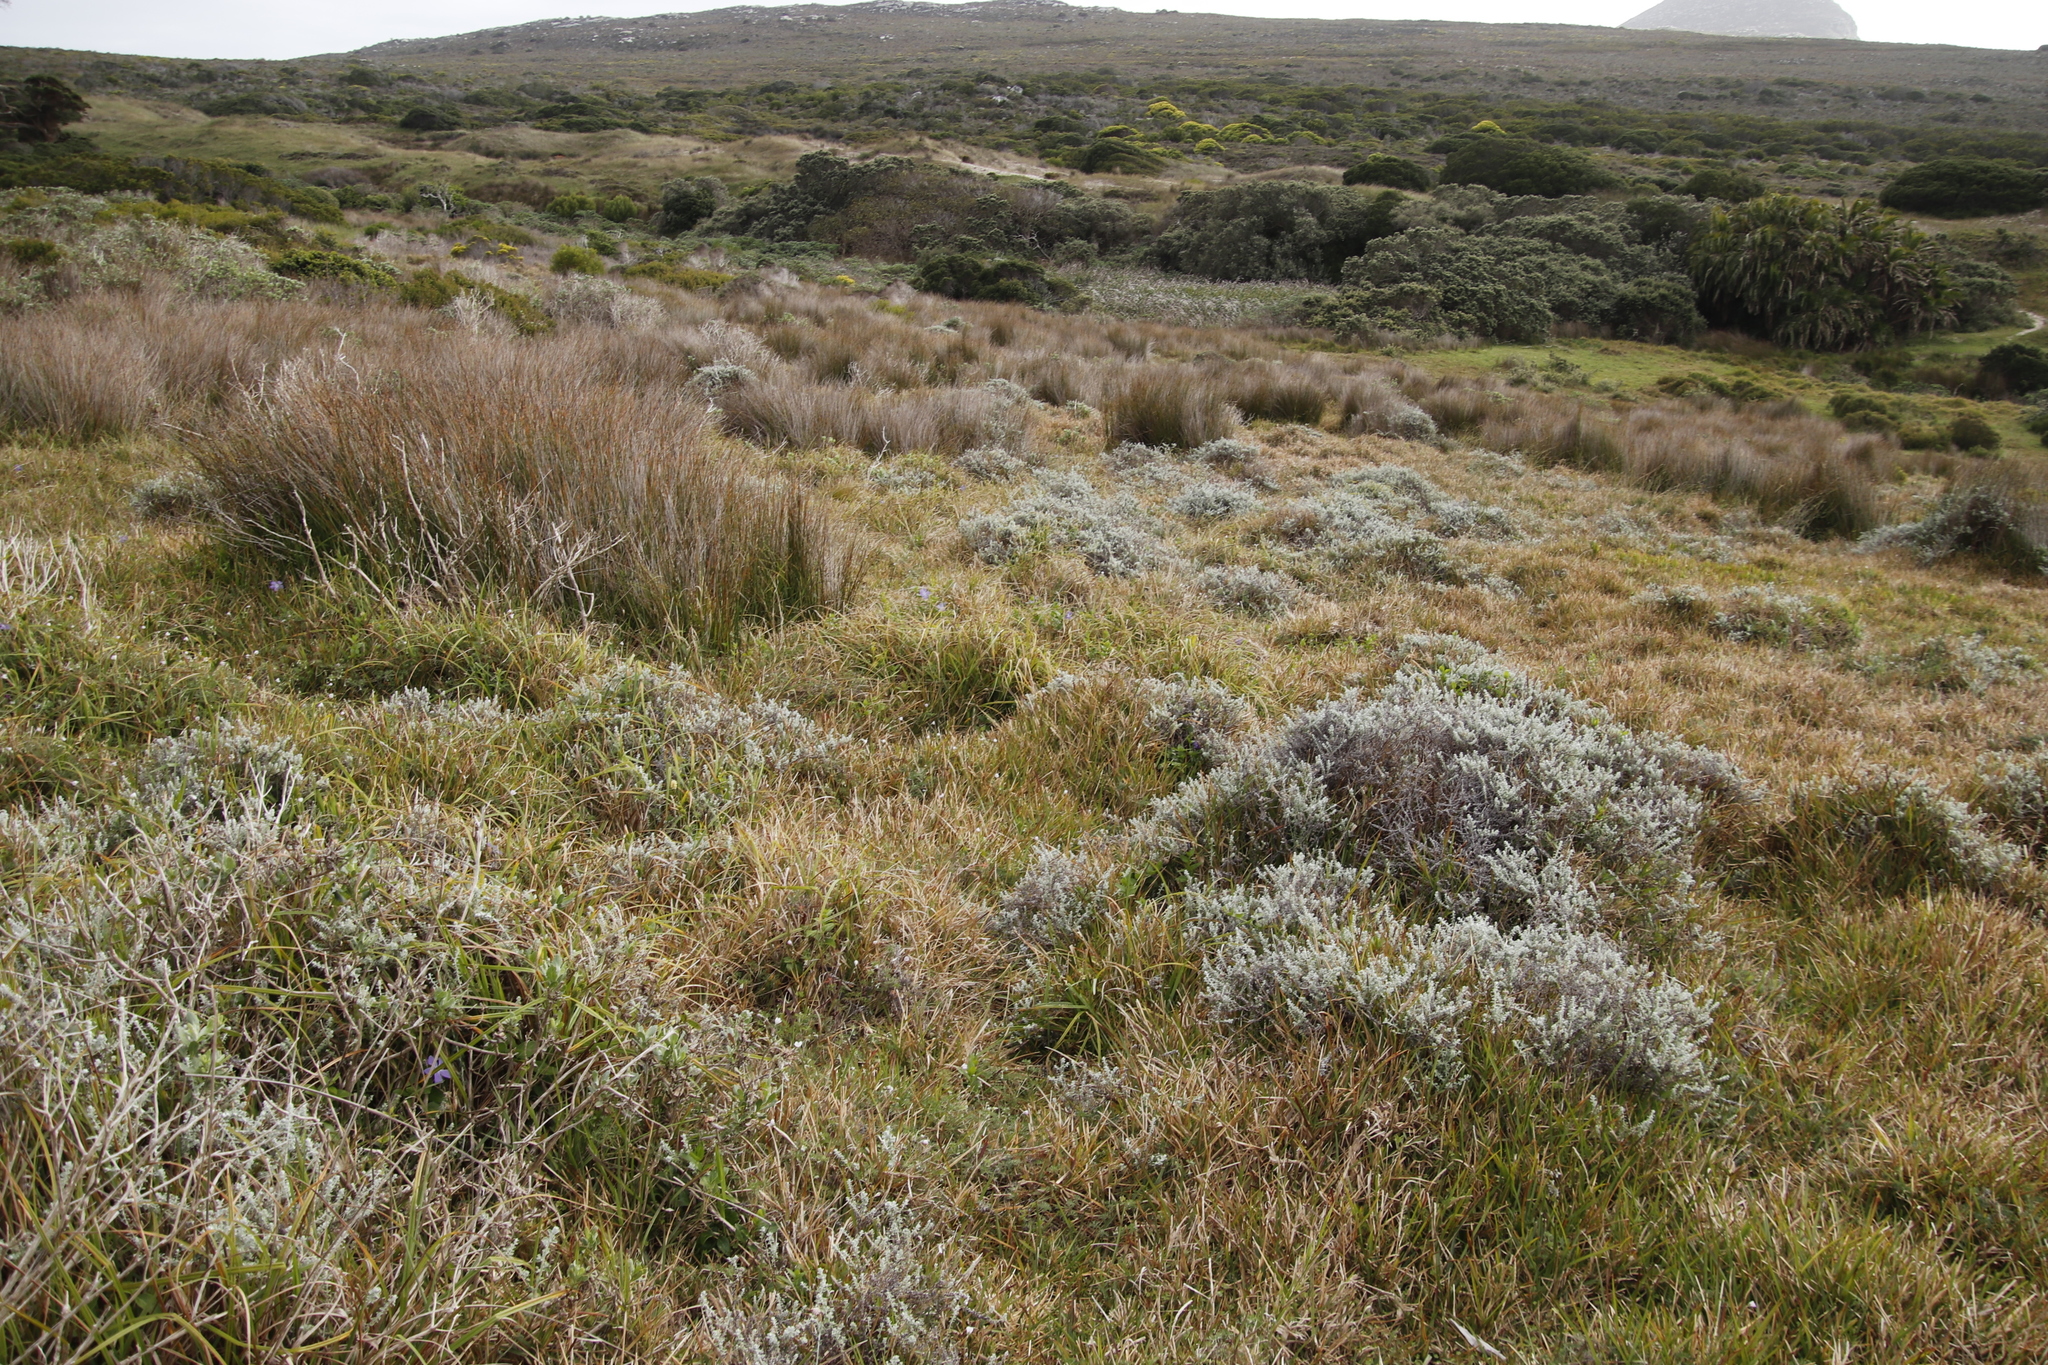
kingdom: Plantae
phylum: Tracheophyta
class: Liliopsida
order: Poales
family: Poaceae
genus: Stenotaphrum
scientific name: Stenotaphrum secundatum
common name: St. augustine grass
